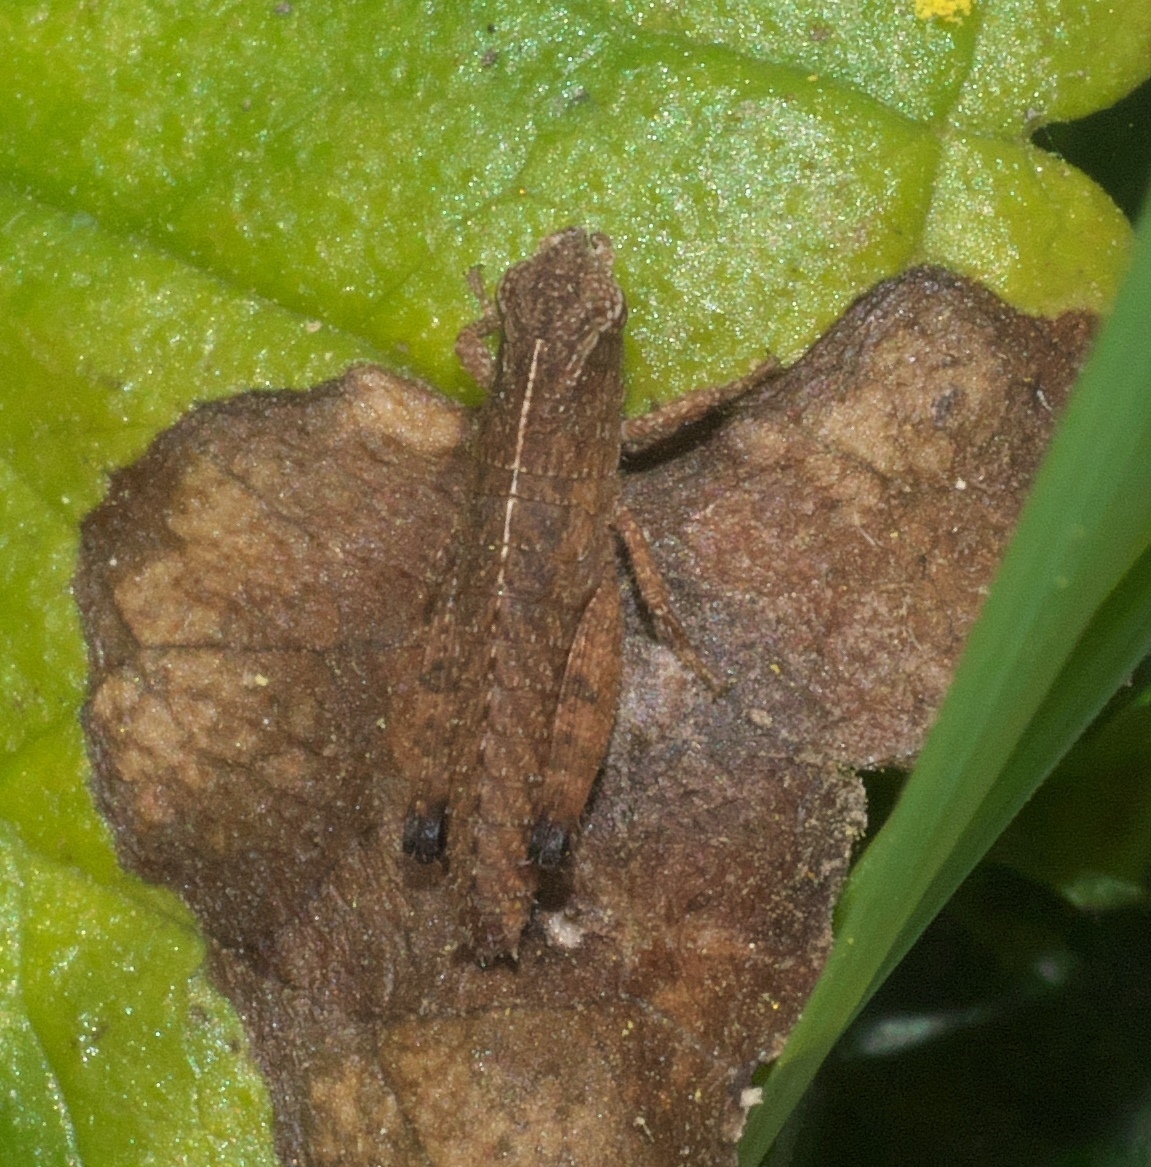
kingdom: Animalia
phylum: Arthropoda
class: Insecta
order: Orthoptera
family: Acrididae
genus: Chortophaga
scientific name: Chortophaga viridifasciata
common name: Green-striped grasshopper
